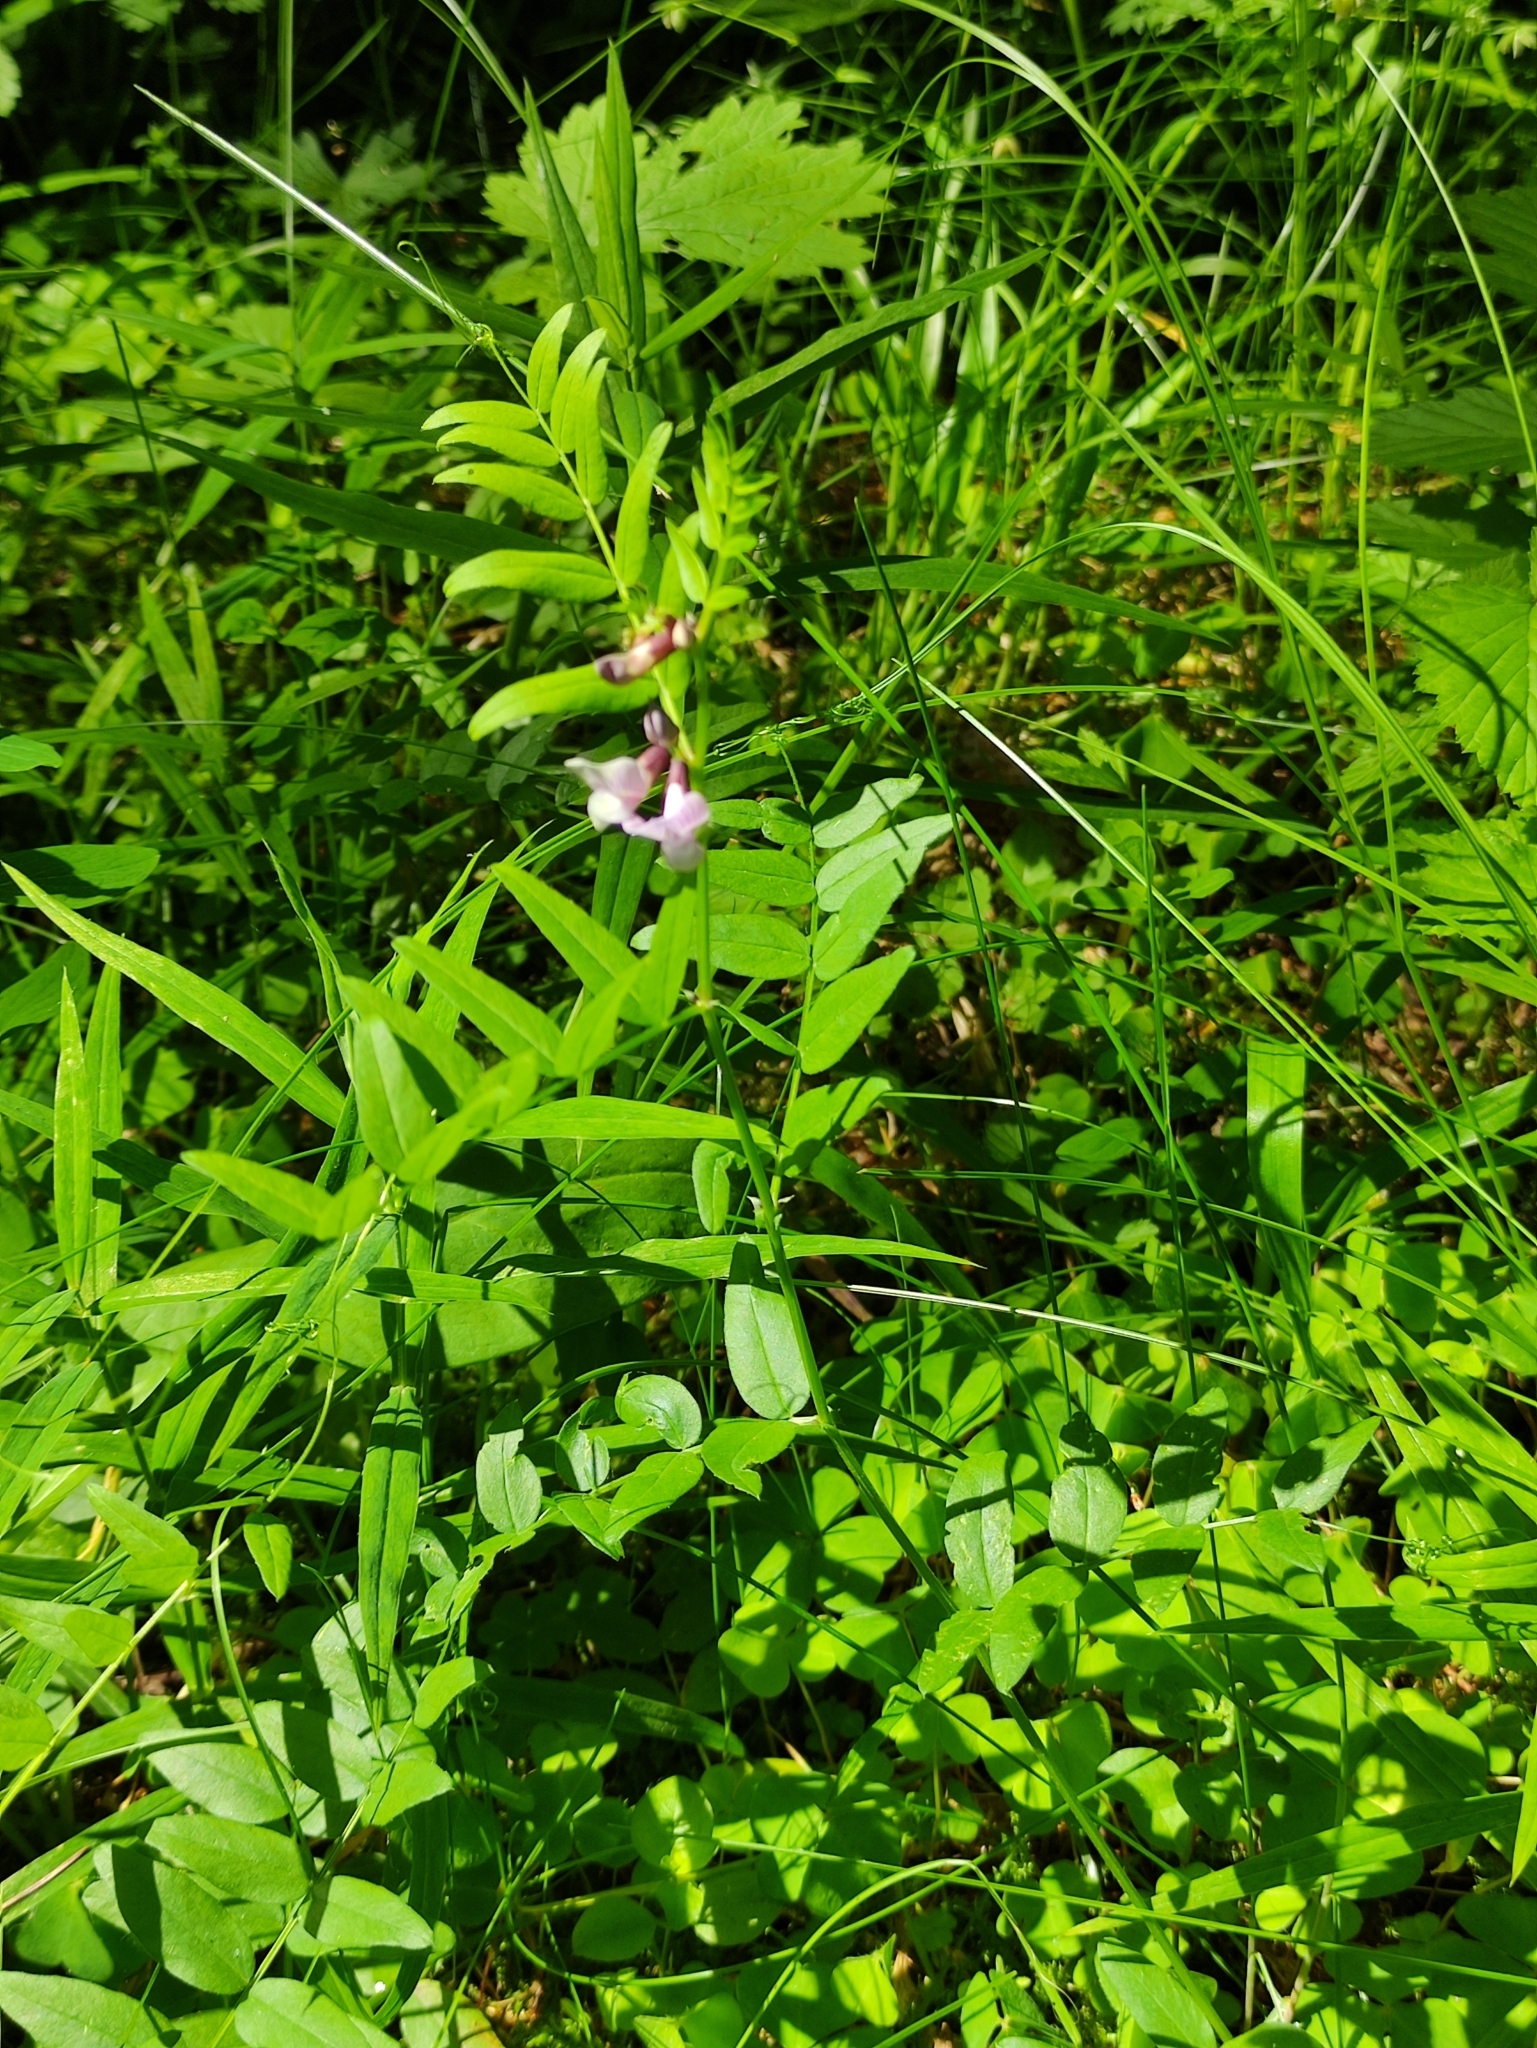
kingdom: Plantae
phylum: Tracheophyta
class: Magnoliopsida
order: Fabales
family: Fabaceae
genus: Vicia
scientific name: Vicia sepium
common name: Bush vetch
